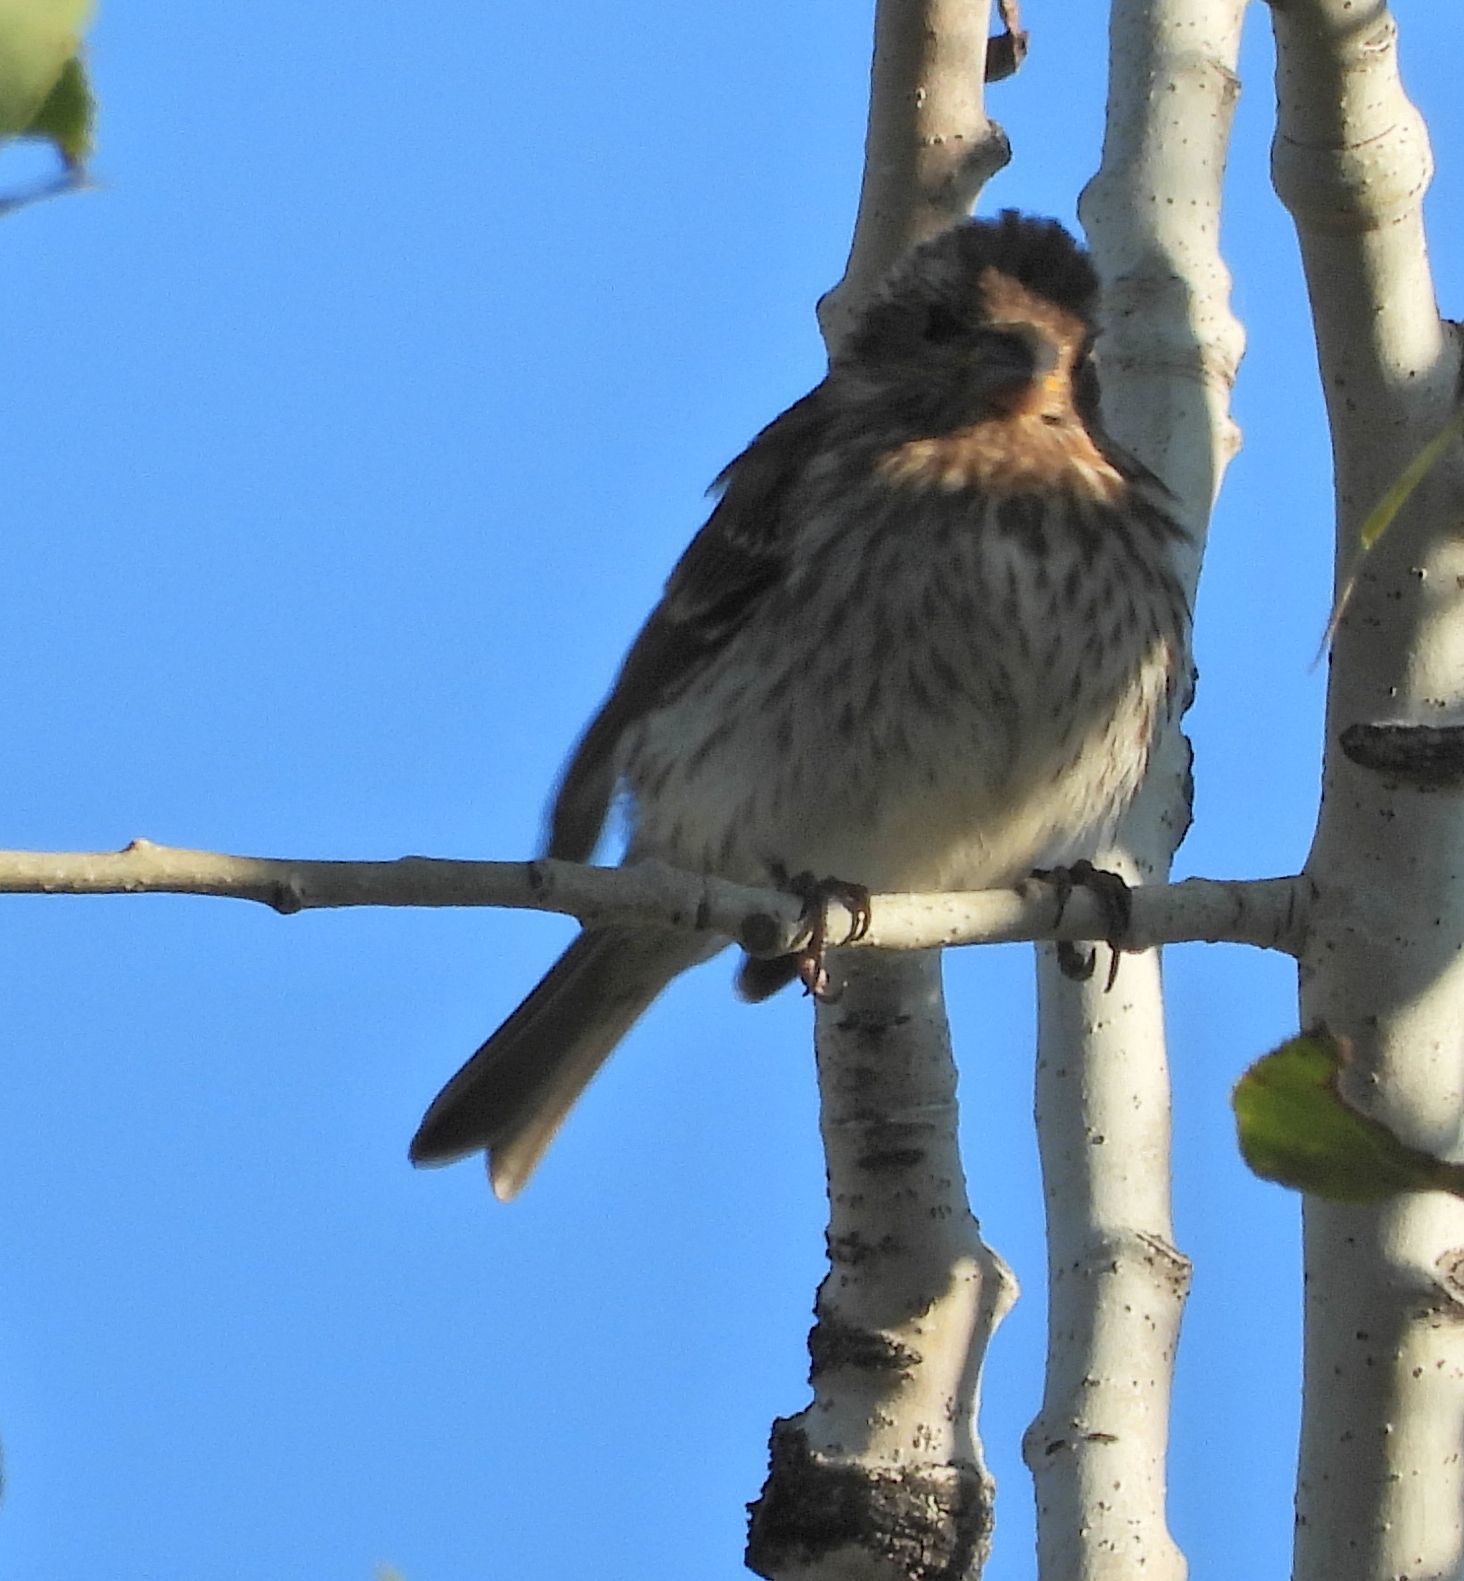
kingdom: Animalia
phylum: Chordata
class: Aves
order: Passeriformes
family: Fringillidae
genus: Haemorhous
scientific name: Haemorhous purpureus
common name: Purple finch
